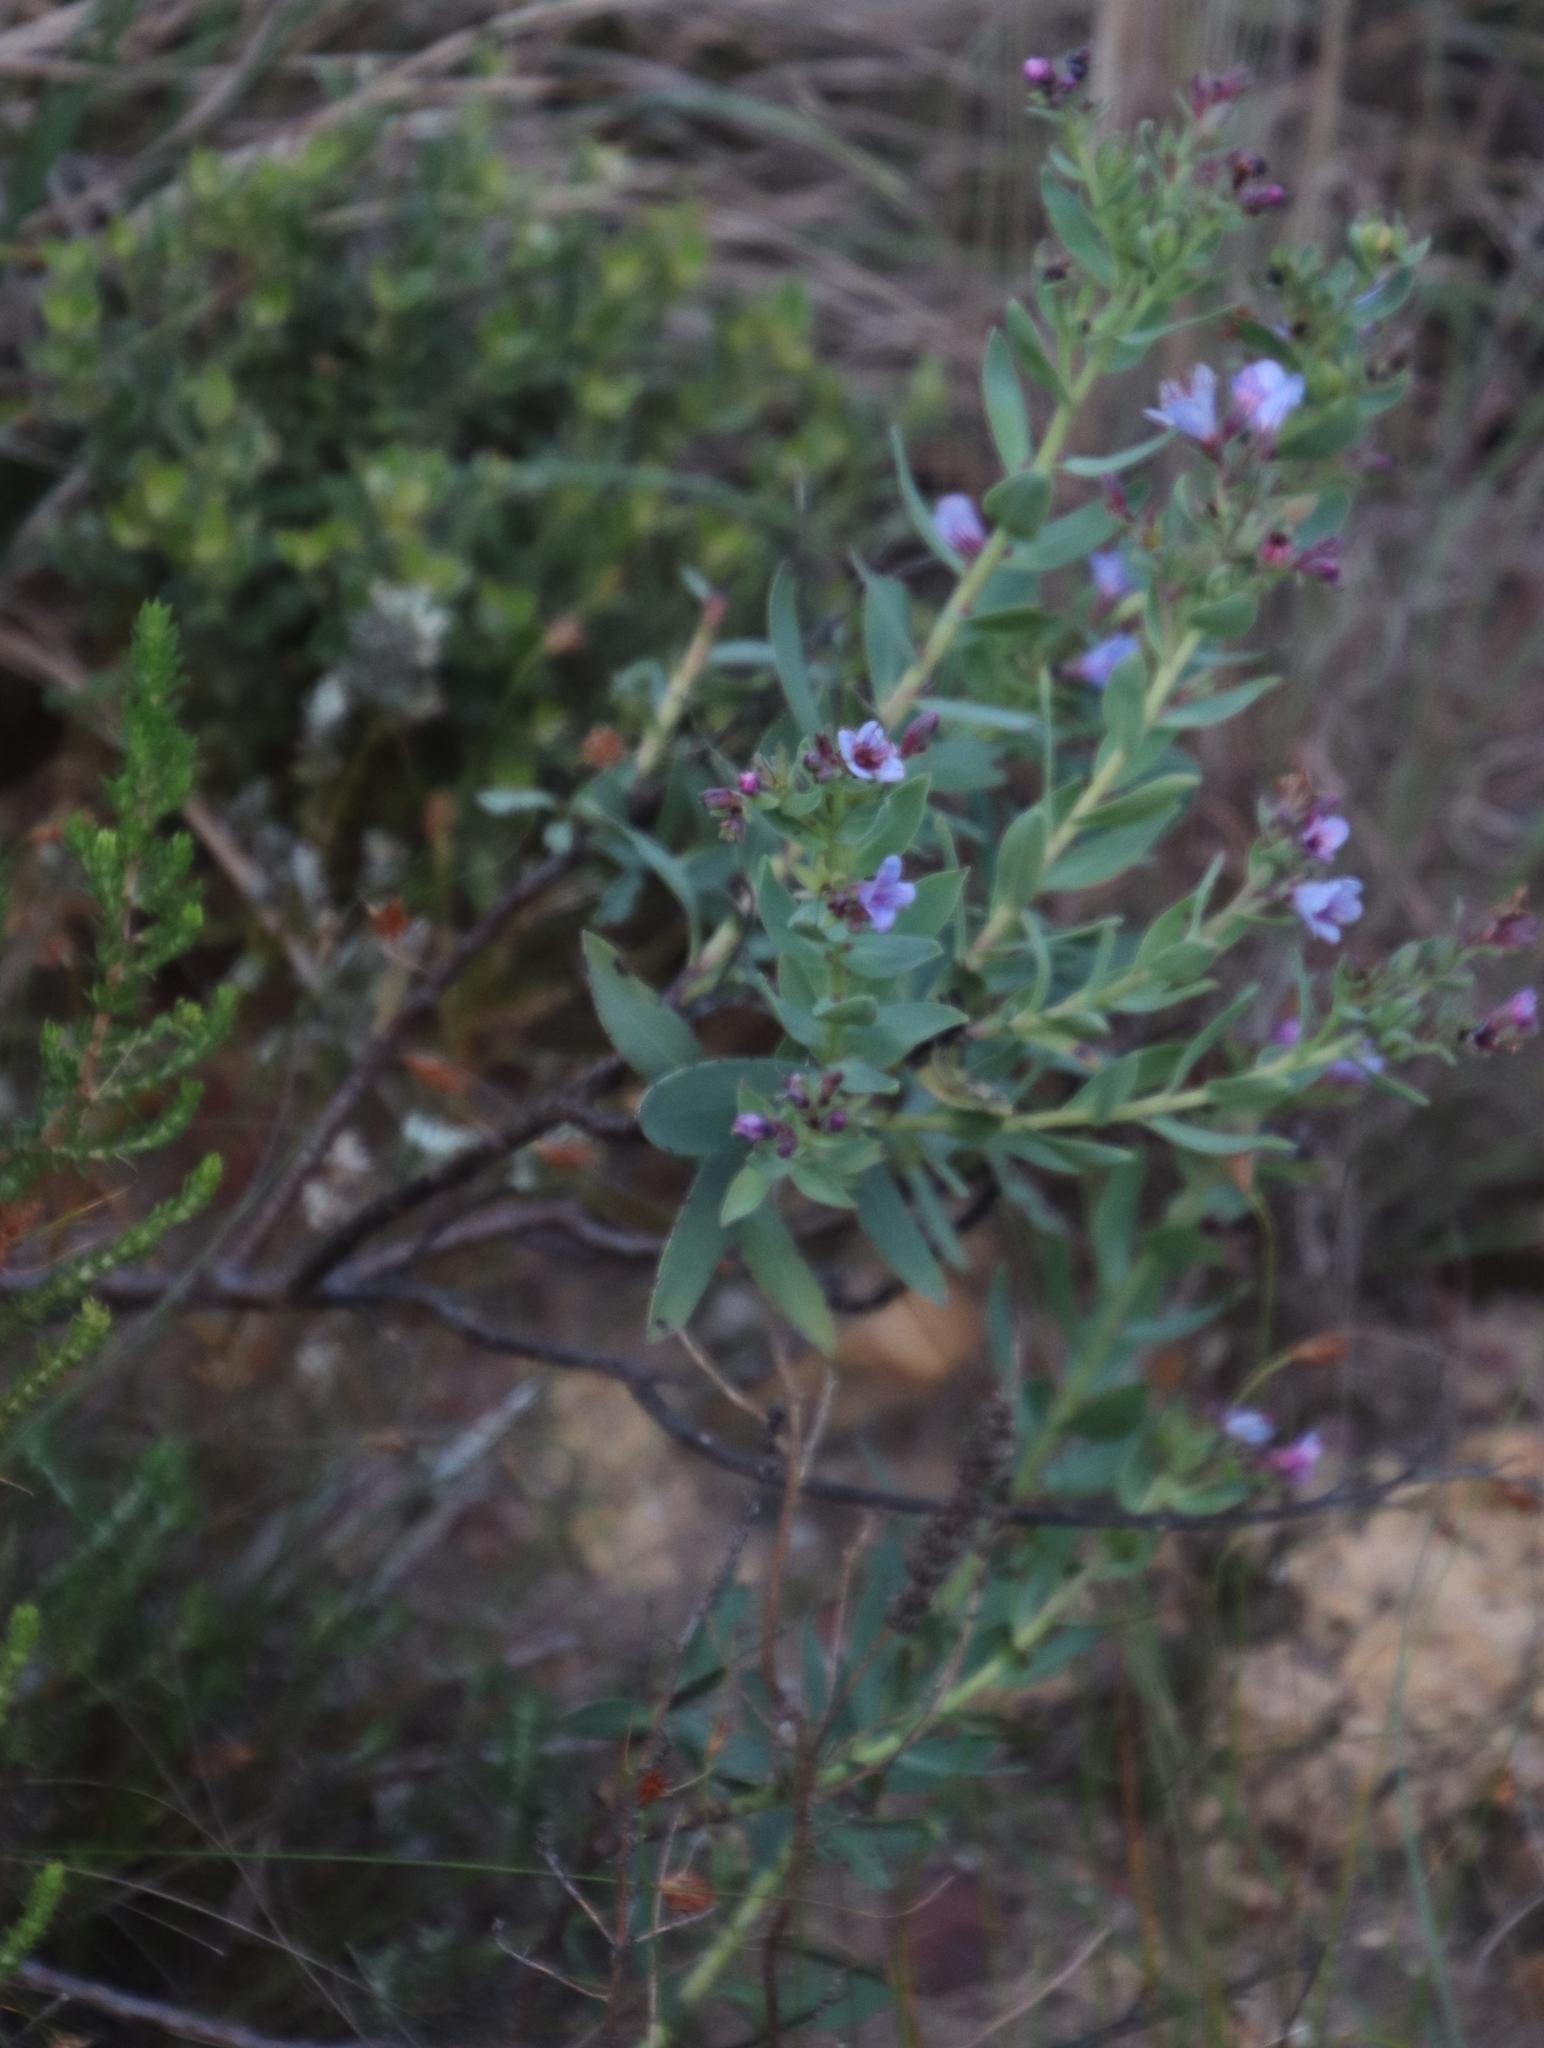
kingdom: Plantae
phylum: Tracheophyta
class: Magnoliopsida
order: Boraginales
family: Boraginaceae
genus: Lobostemon
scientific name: Lobostemon glaucophyllus
